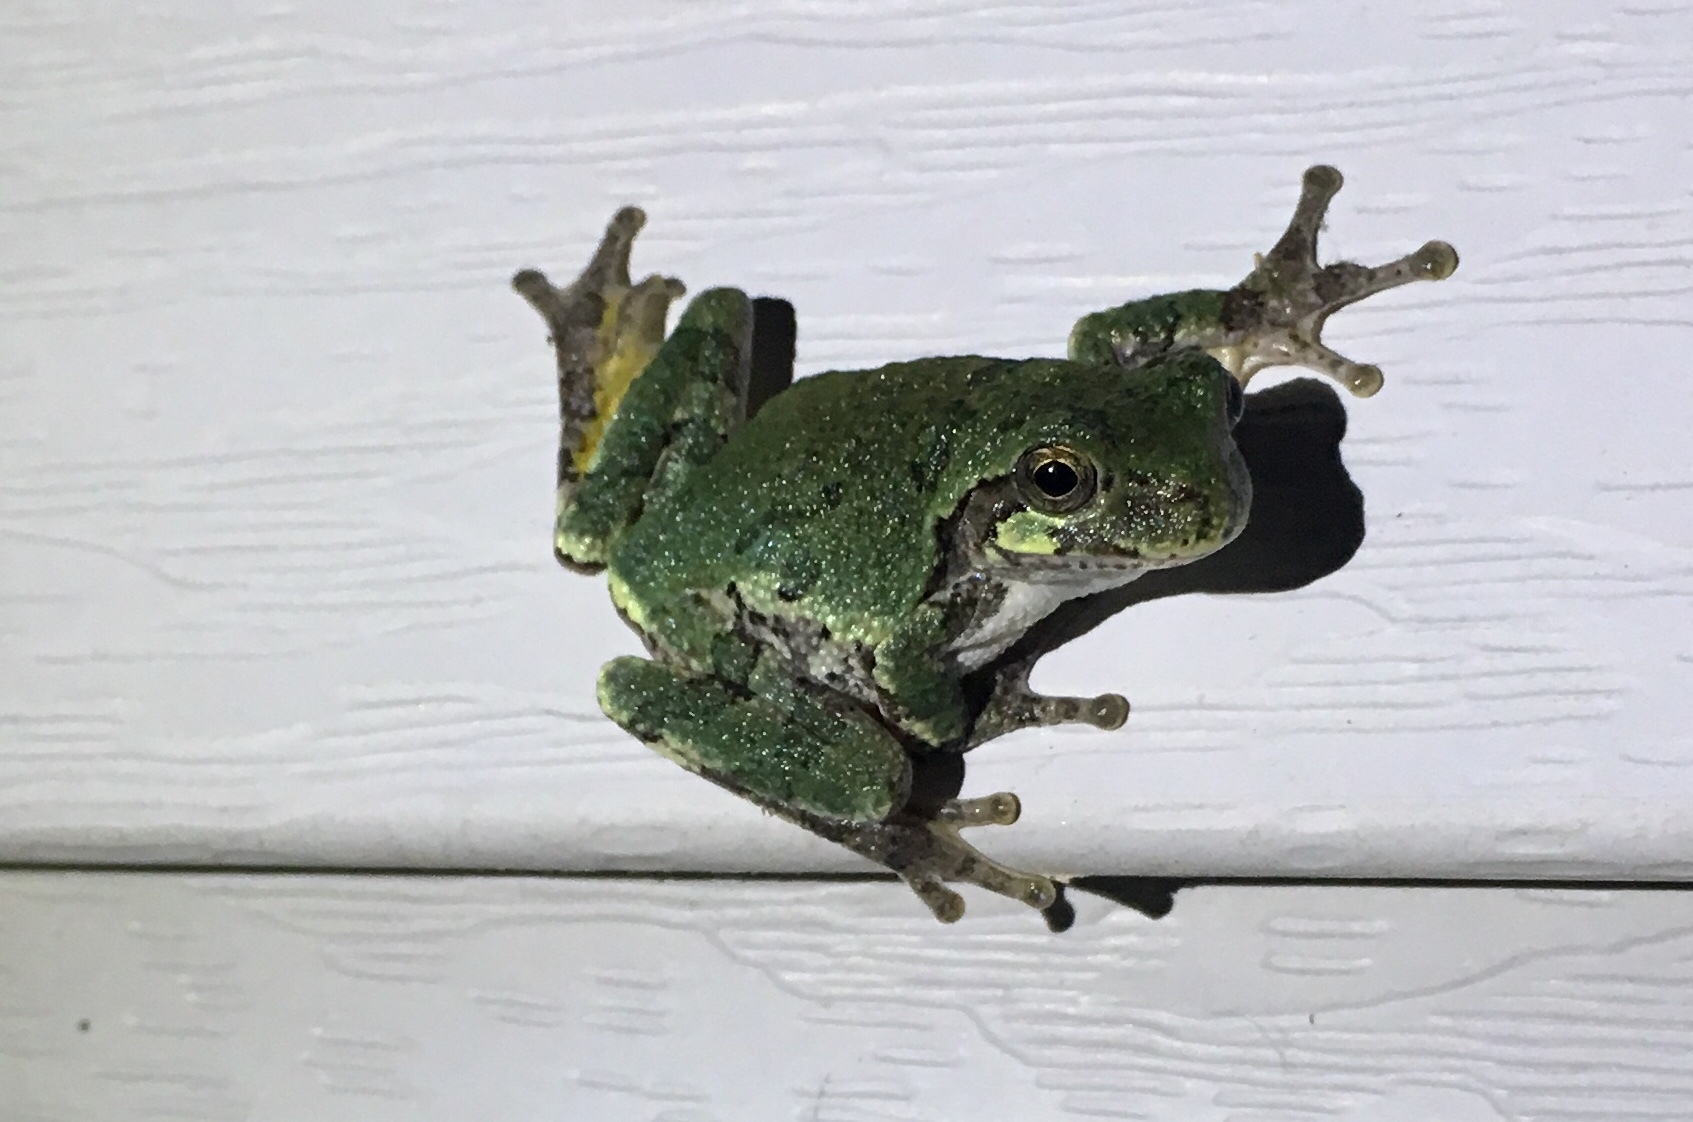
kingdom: Animalia
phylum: Chordata
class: Amphibia
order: Anura
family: Hylidae
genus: Hyla
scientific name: Hyla
